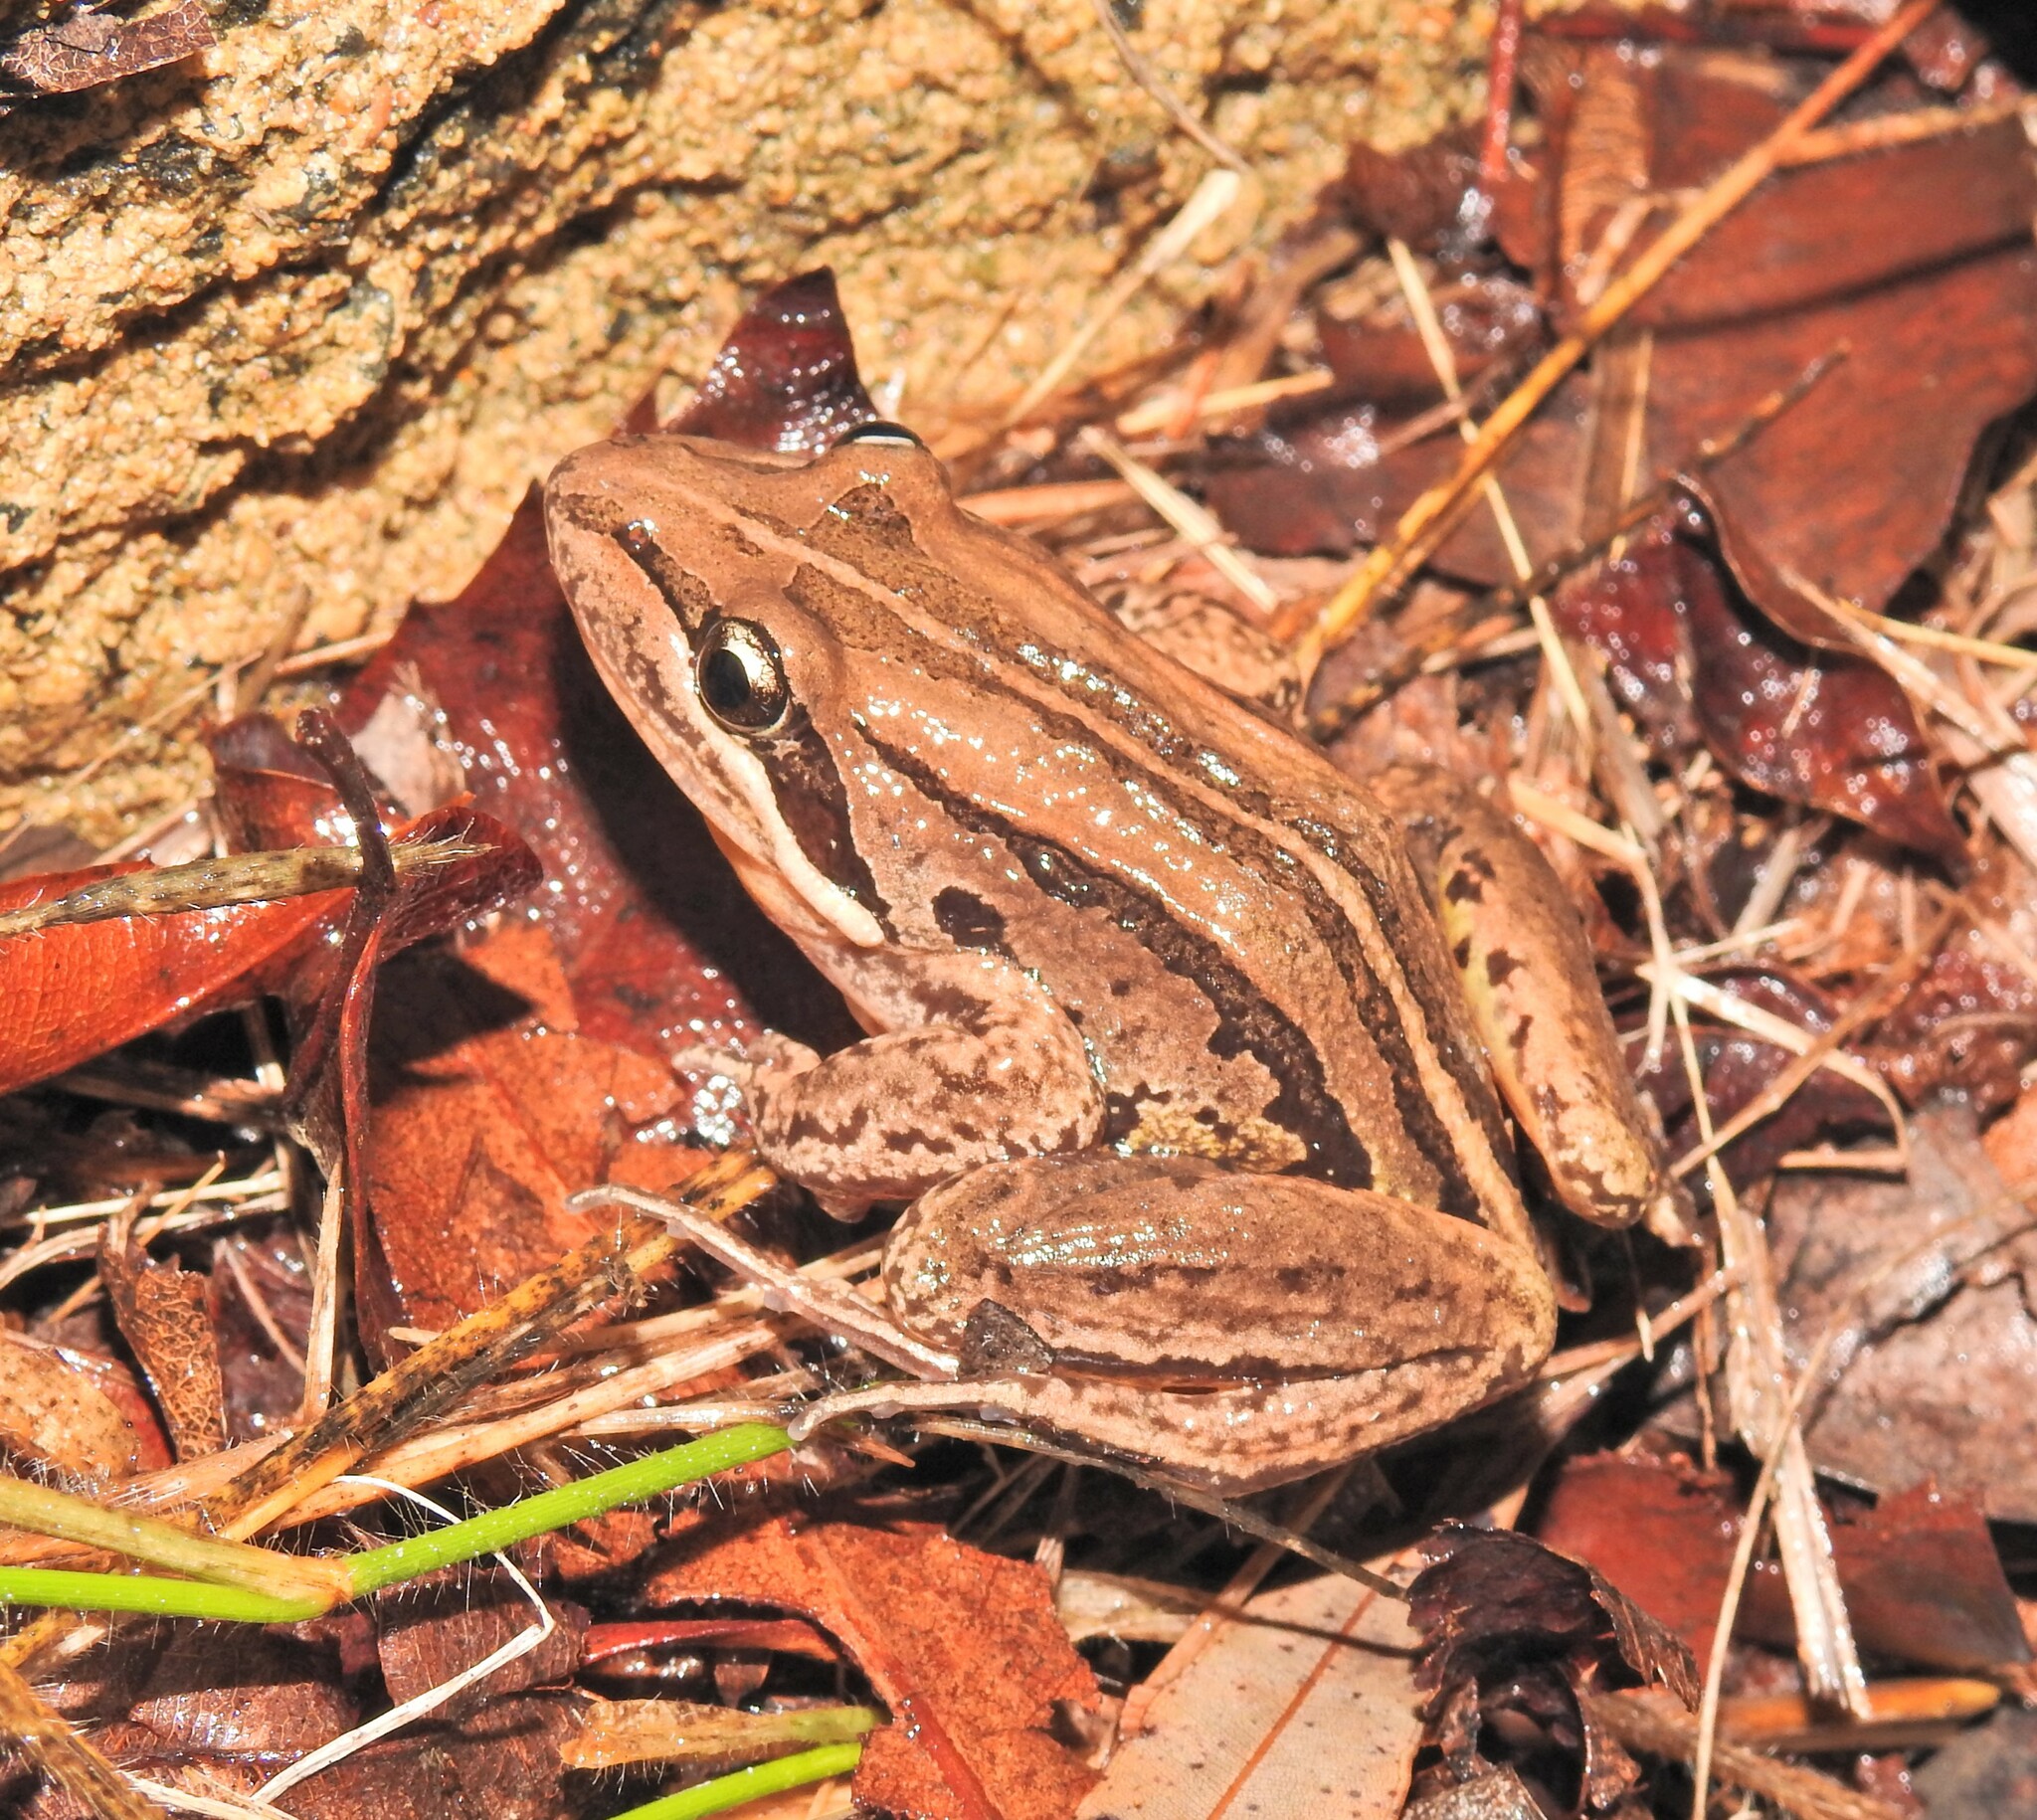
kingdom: Animalia
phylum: Chordata
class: Amphibia
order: Anura
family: Limnodynastidae
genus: Limnodynastes
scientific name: Limnodynastes peronii
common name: Brown frog
